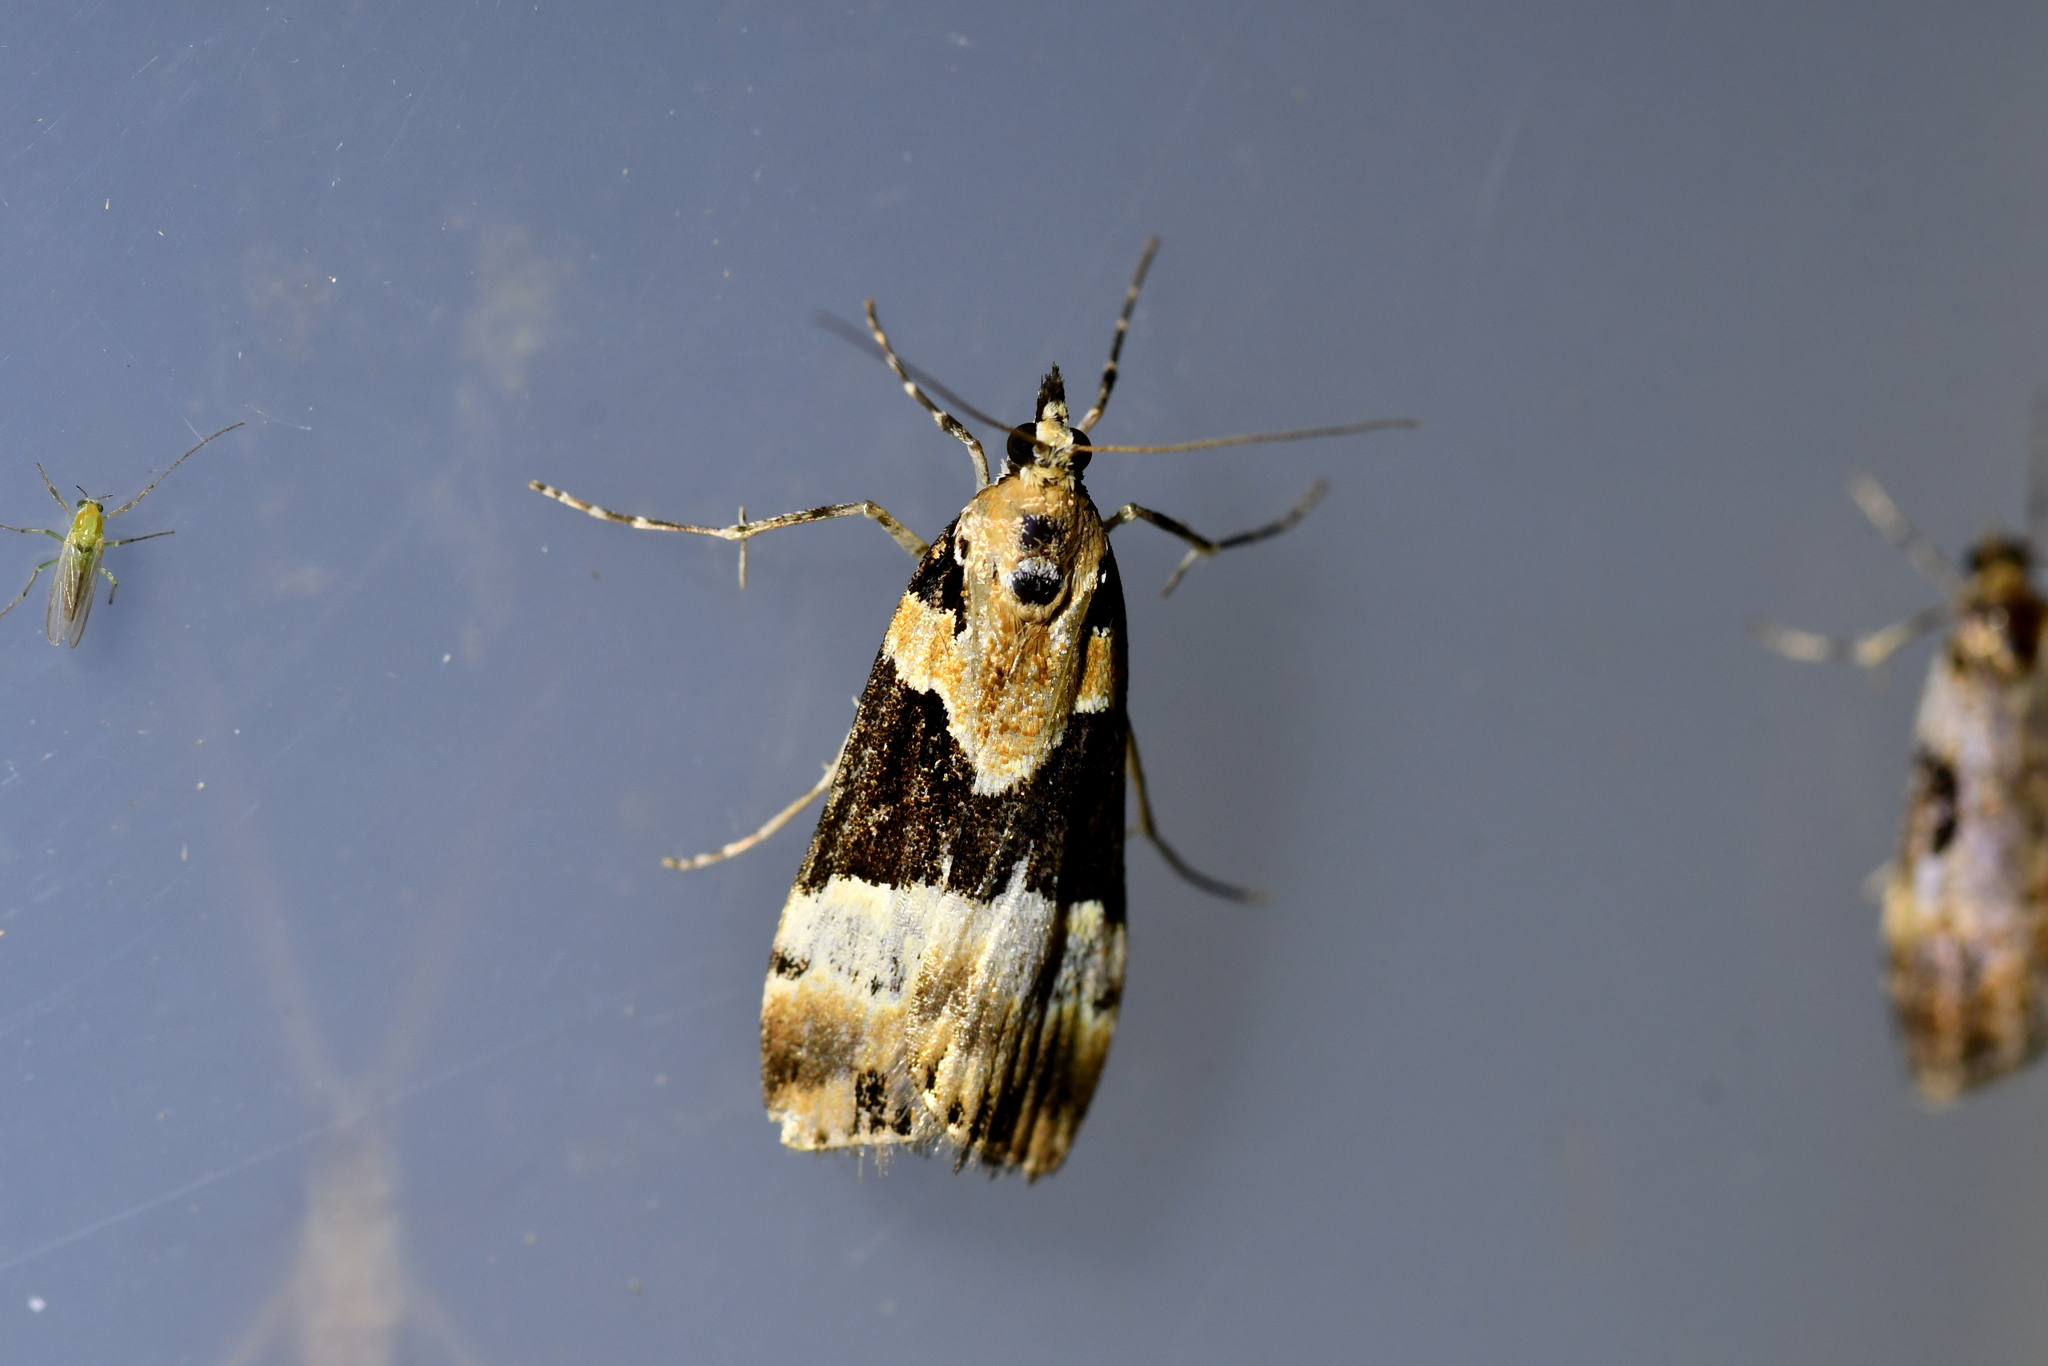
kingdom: Animalia
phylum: Arthropoda
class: Insecta
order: Lepidoptera
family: Crambidae
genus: Eudonia
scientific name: Eudonia aspidota
